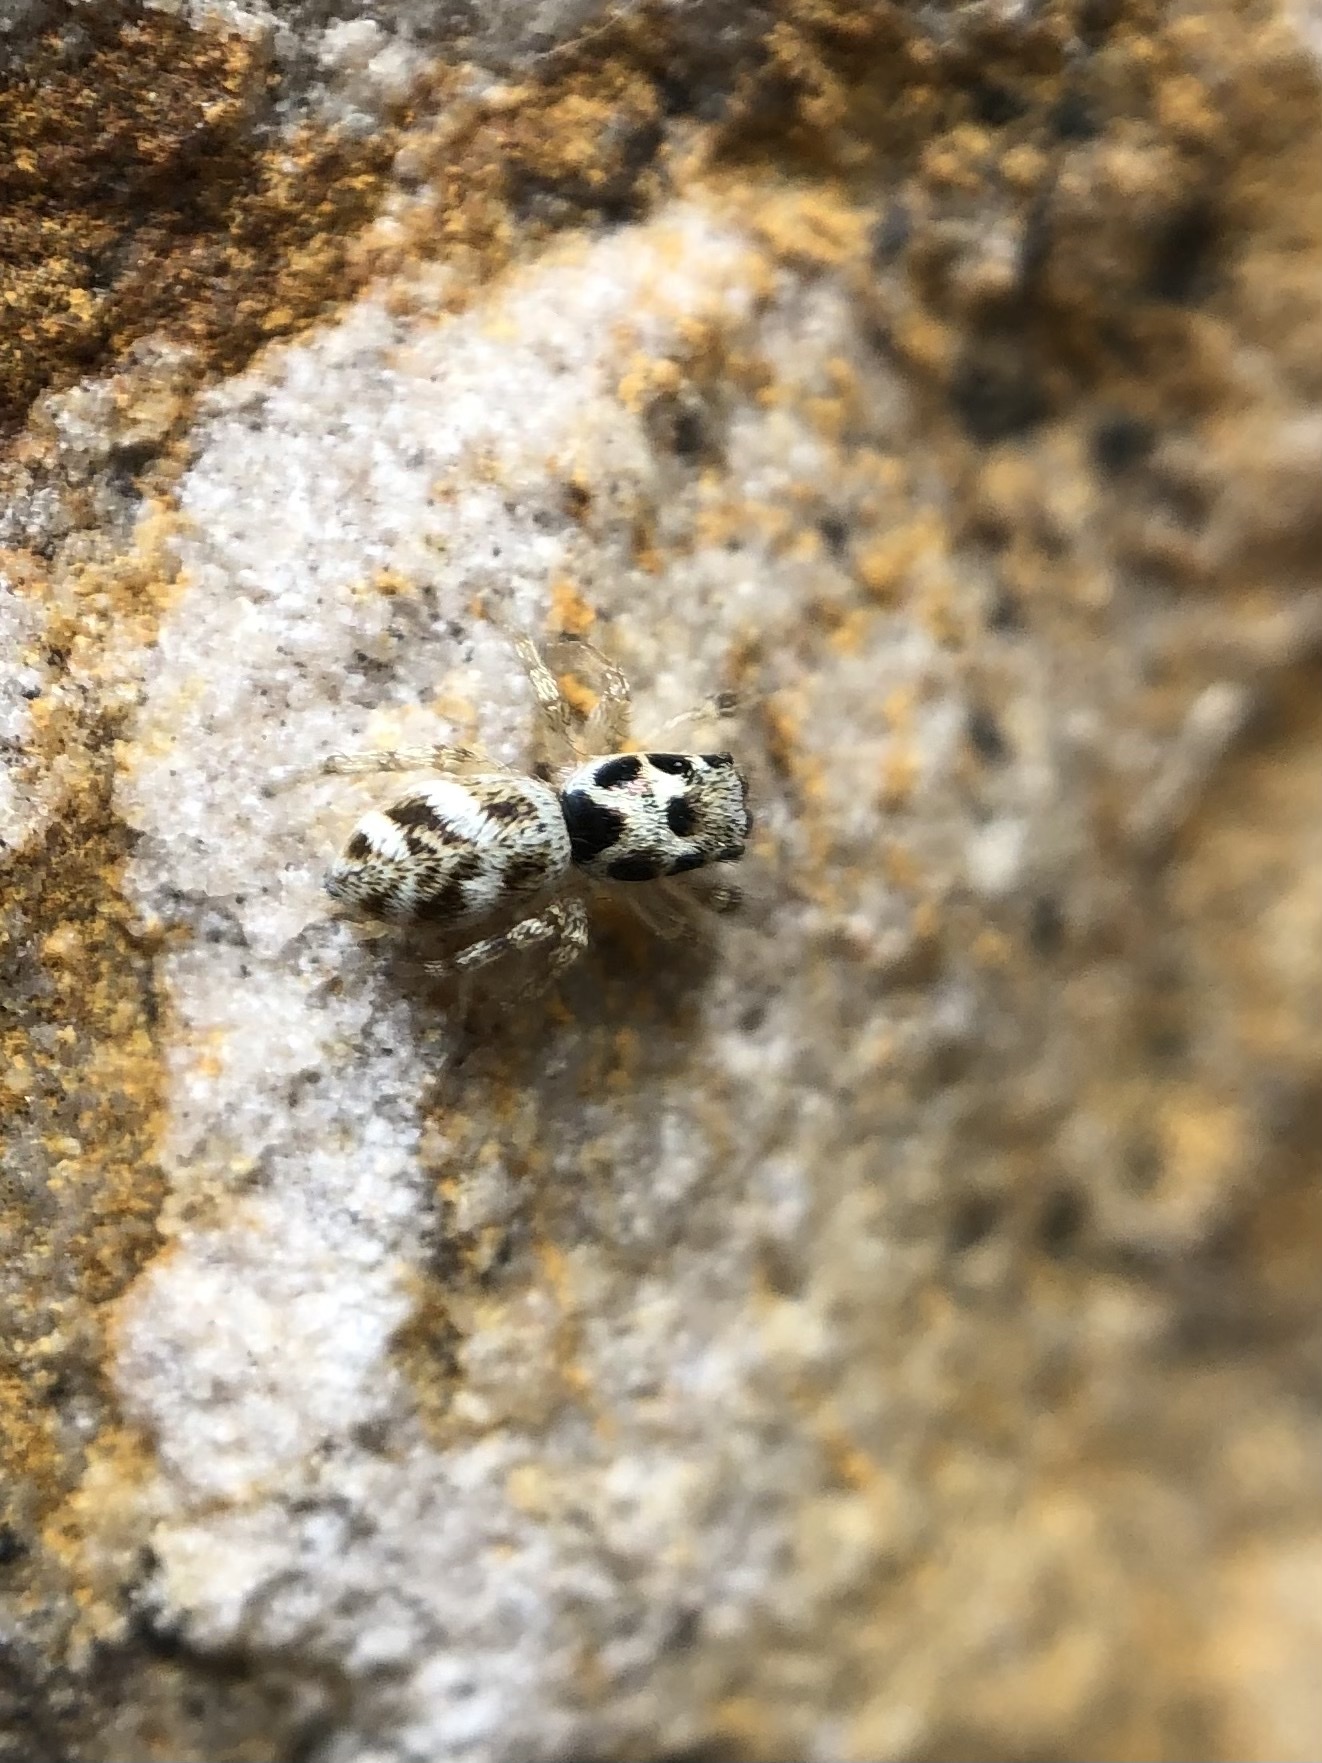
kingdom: Animalia
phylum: Arthropoda
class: Arachnida
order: Araneae
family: Salticidae
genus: Salticus
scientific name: Salticus scenicus
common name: Zebra jumper
